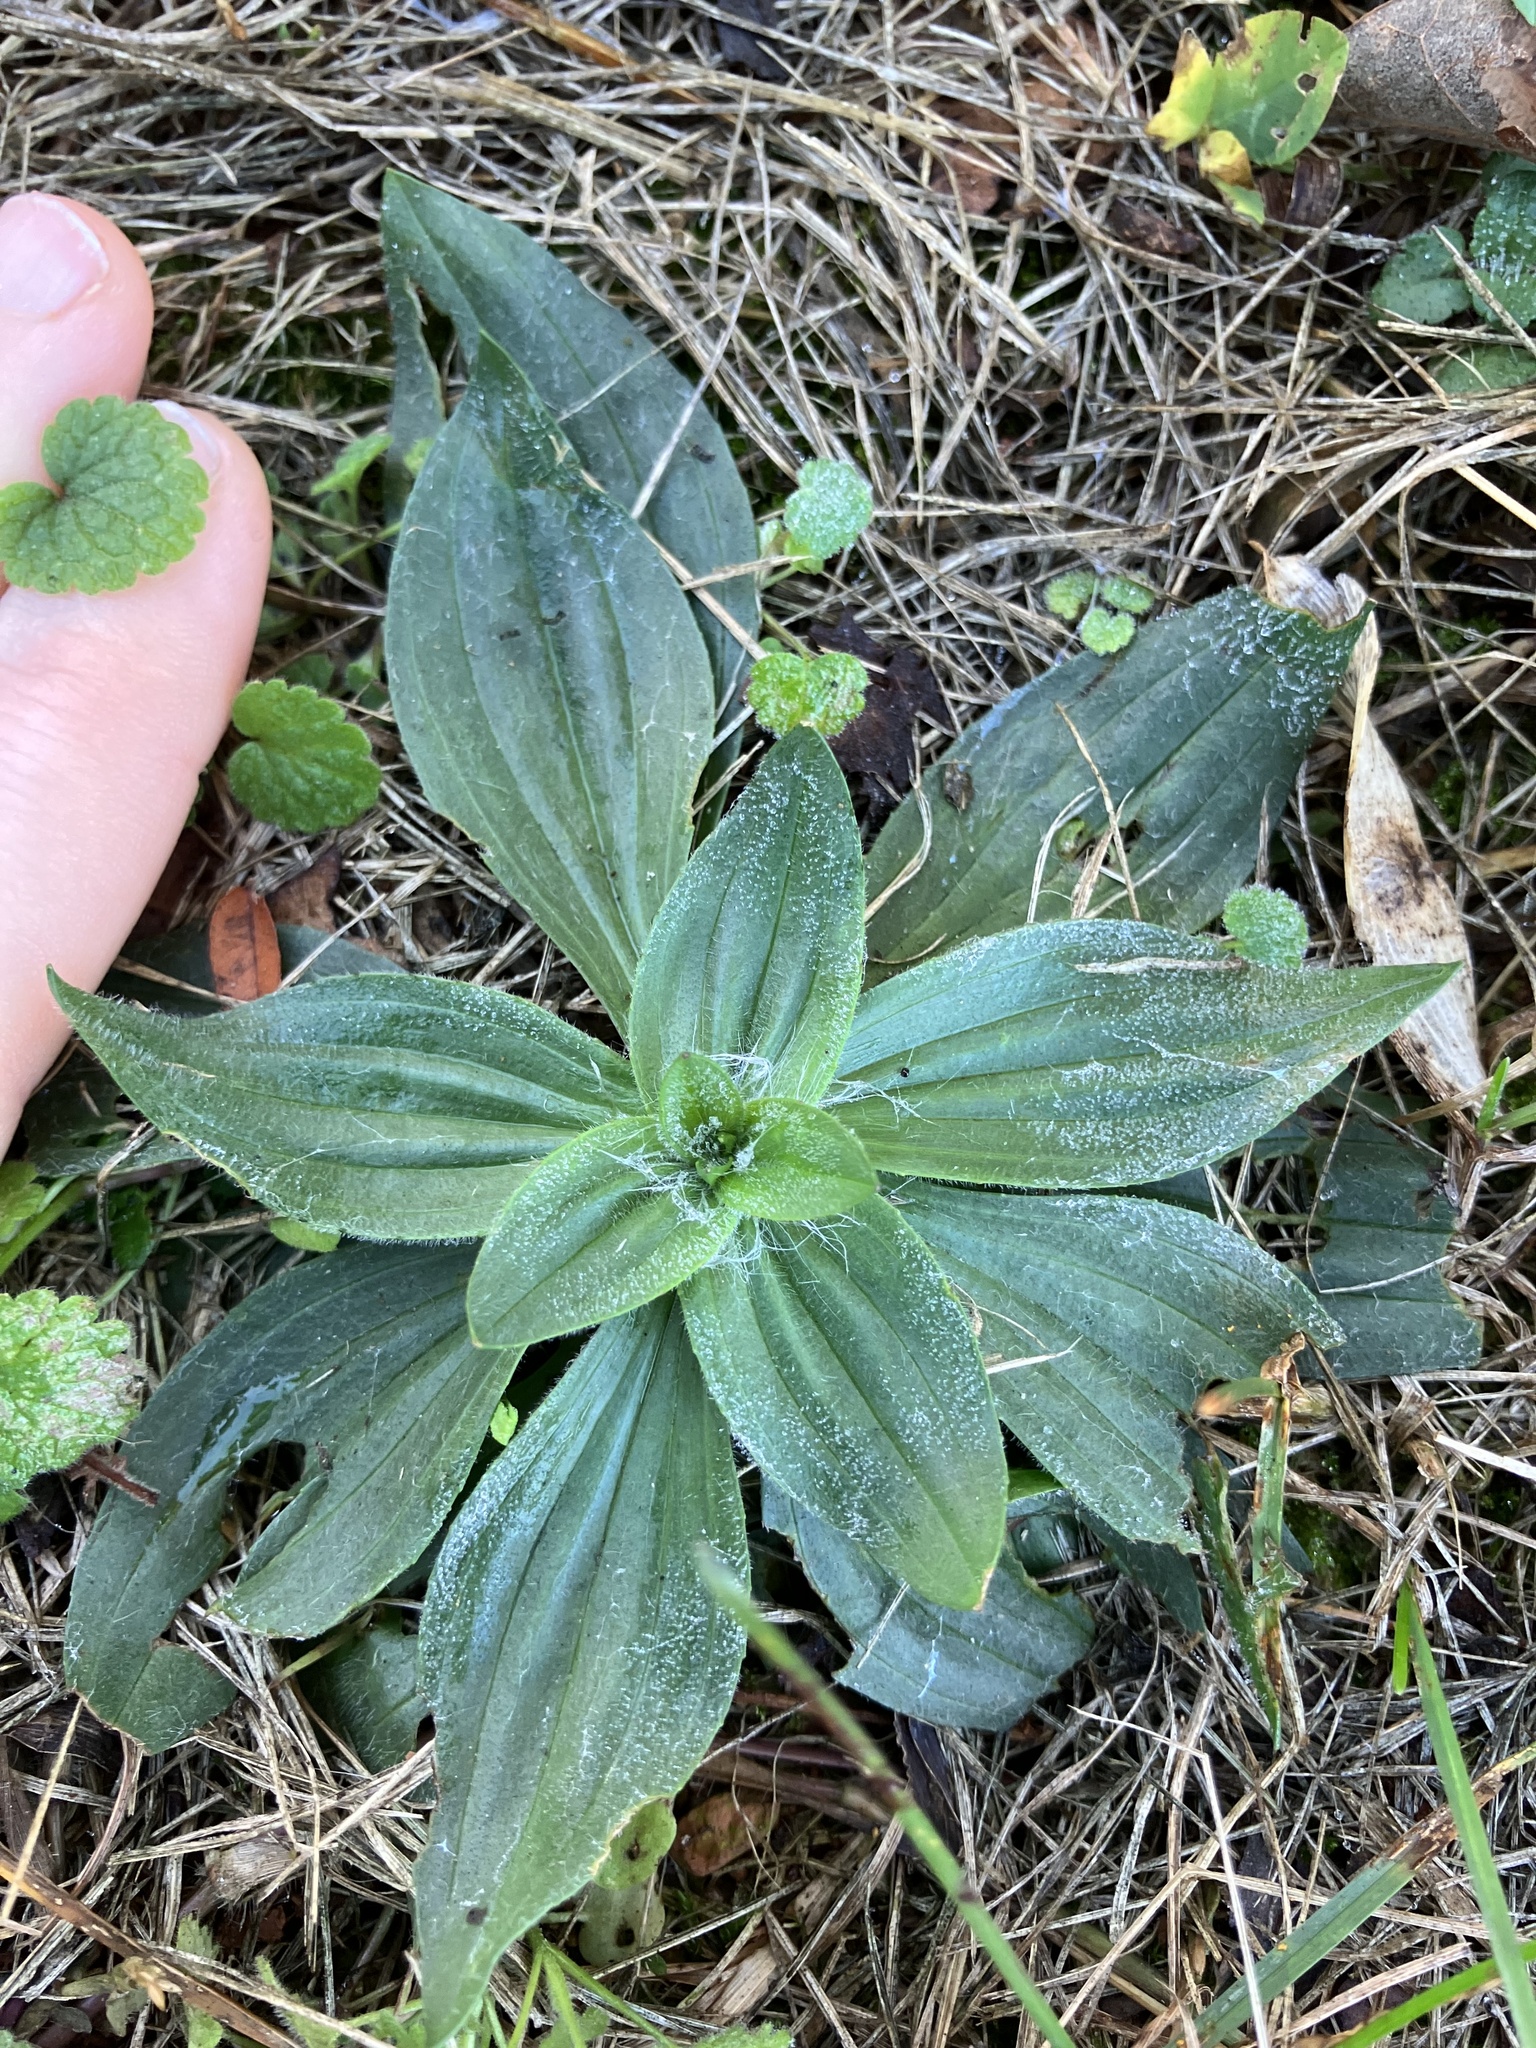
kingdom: Plantae
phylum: Tracheophyta
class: Magnoliopsida
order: Lamiales
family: Plantaginaceae
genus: Plantago
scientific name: Plantago lanceolata
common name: Ribwort plantain
